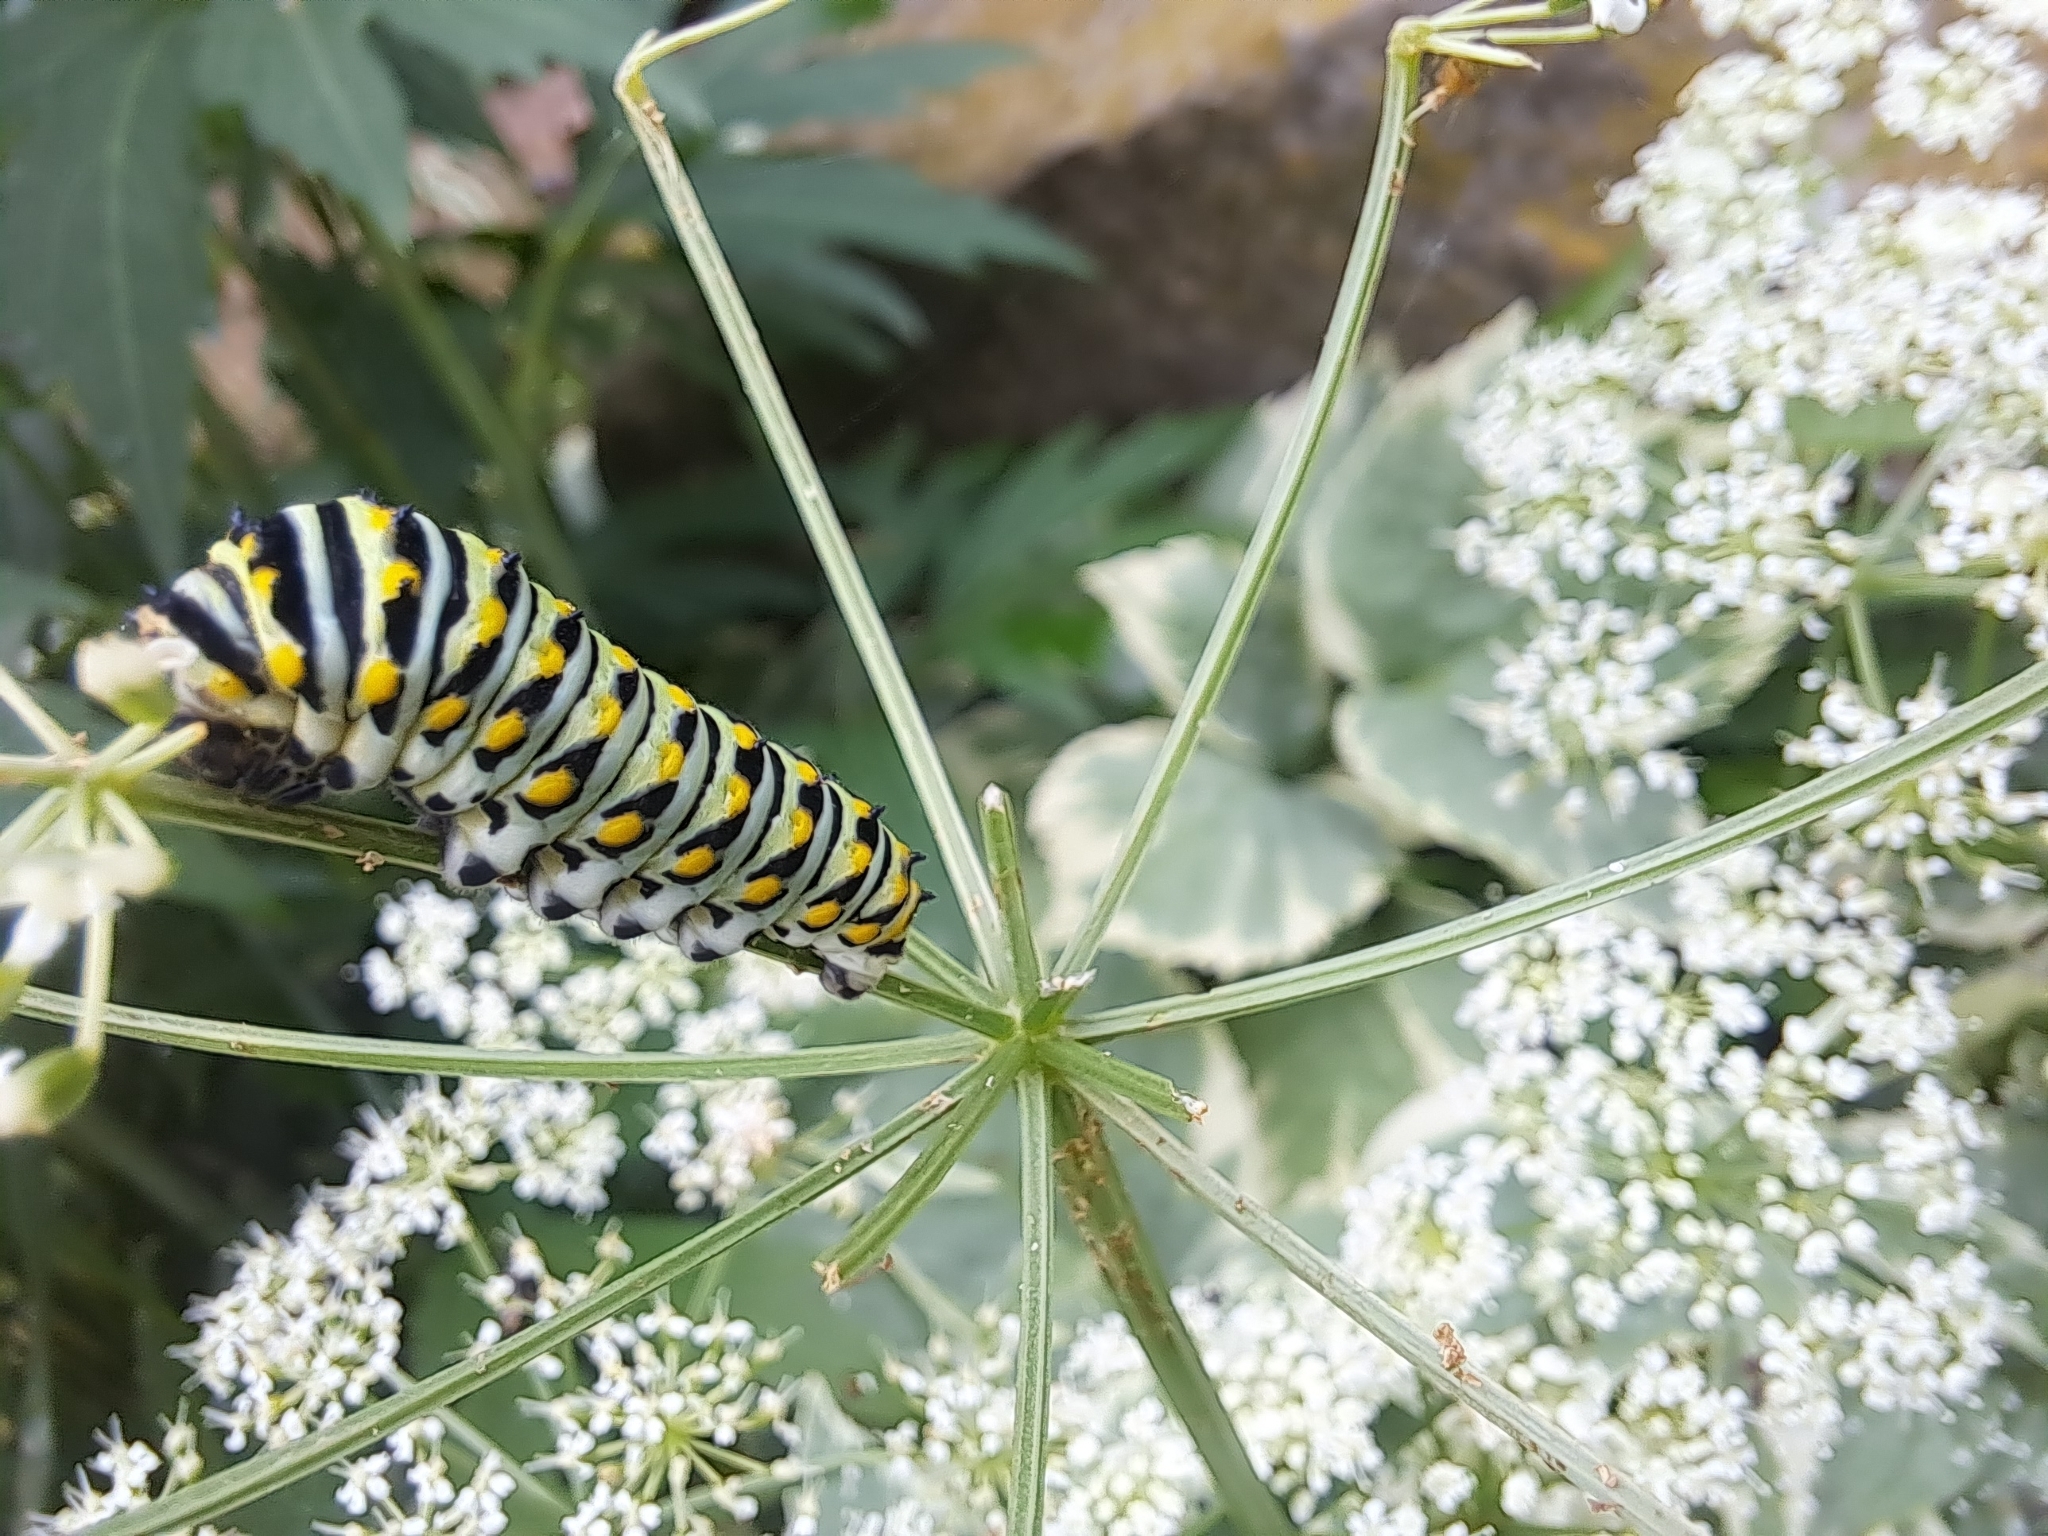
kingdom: Animalia
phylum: Arthropoda
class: Insecta
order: Lepidoptera
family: Papilionidae
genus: Papilio
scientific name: Papilio polyxenes
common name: Black swallowtail
